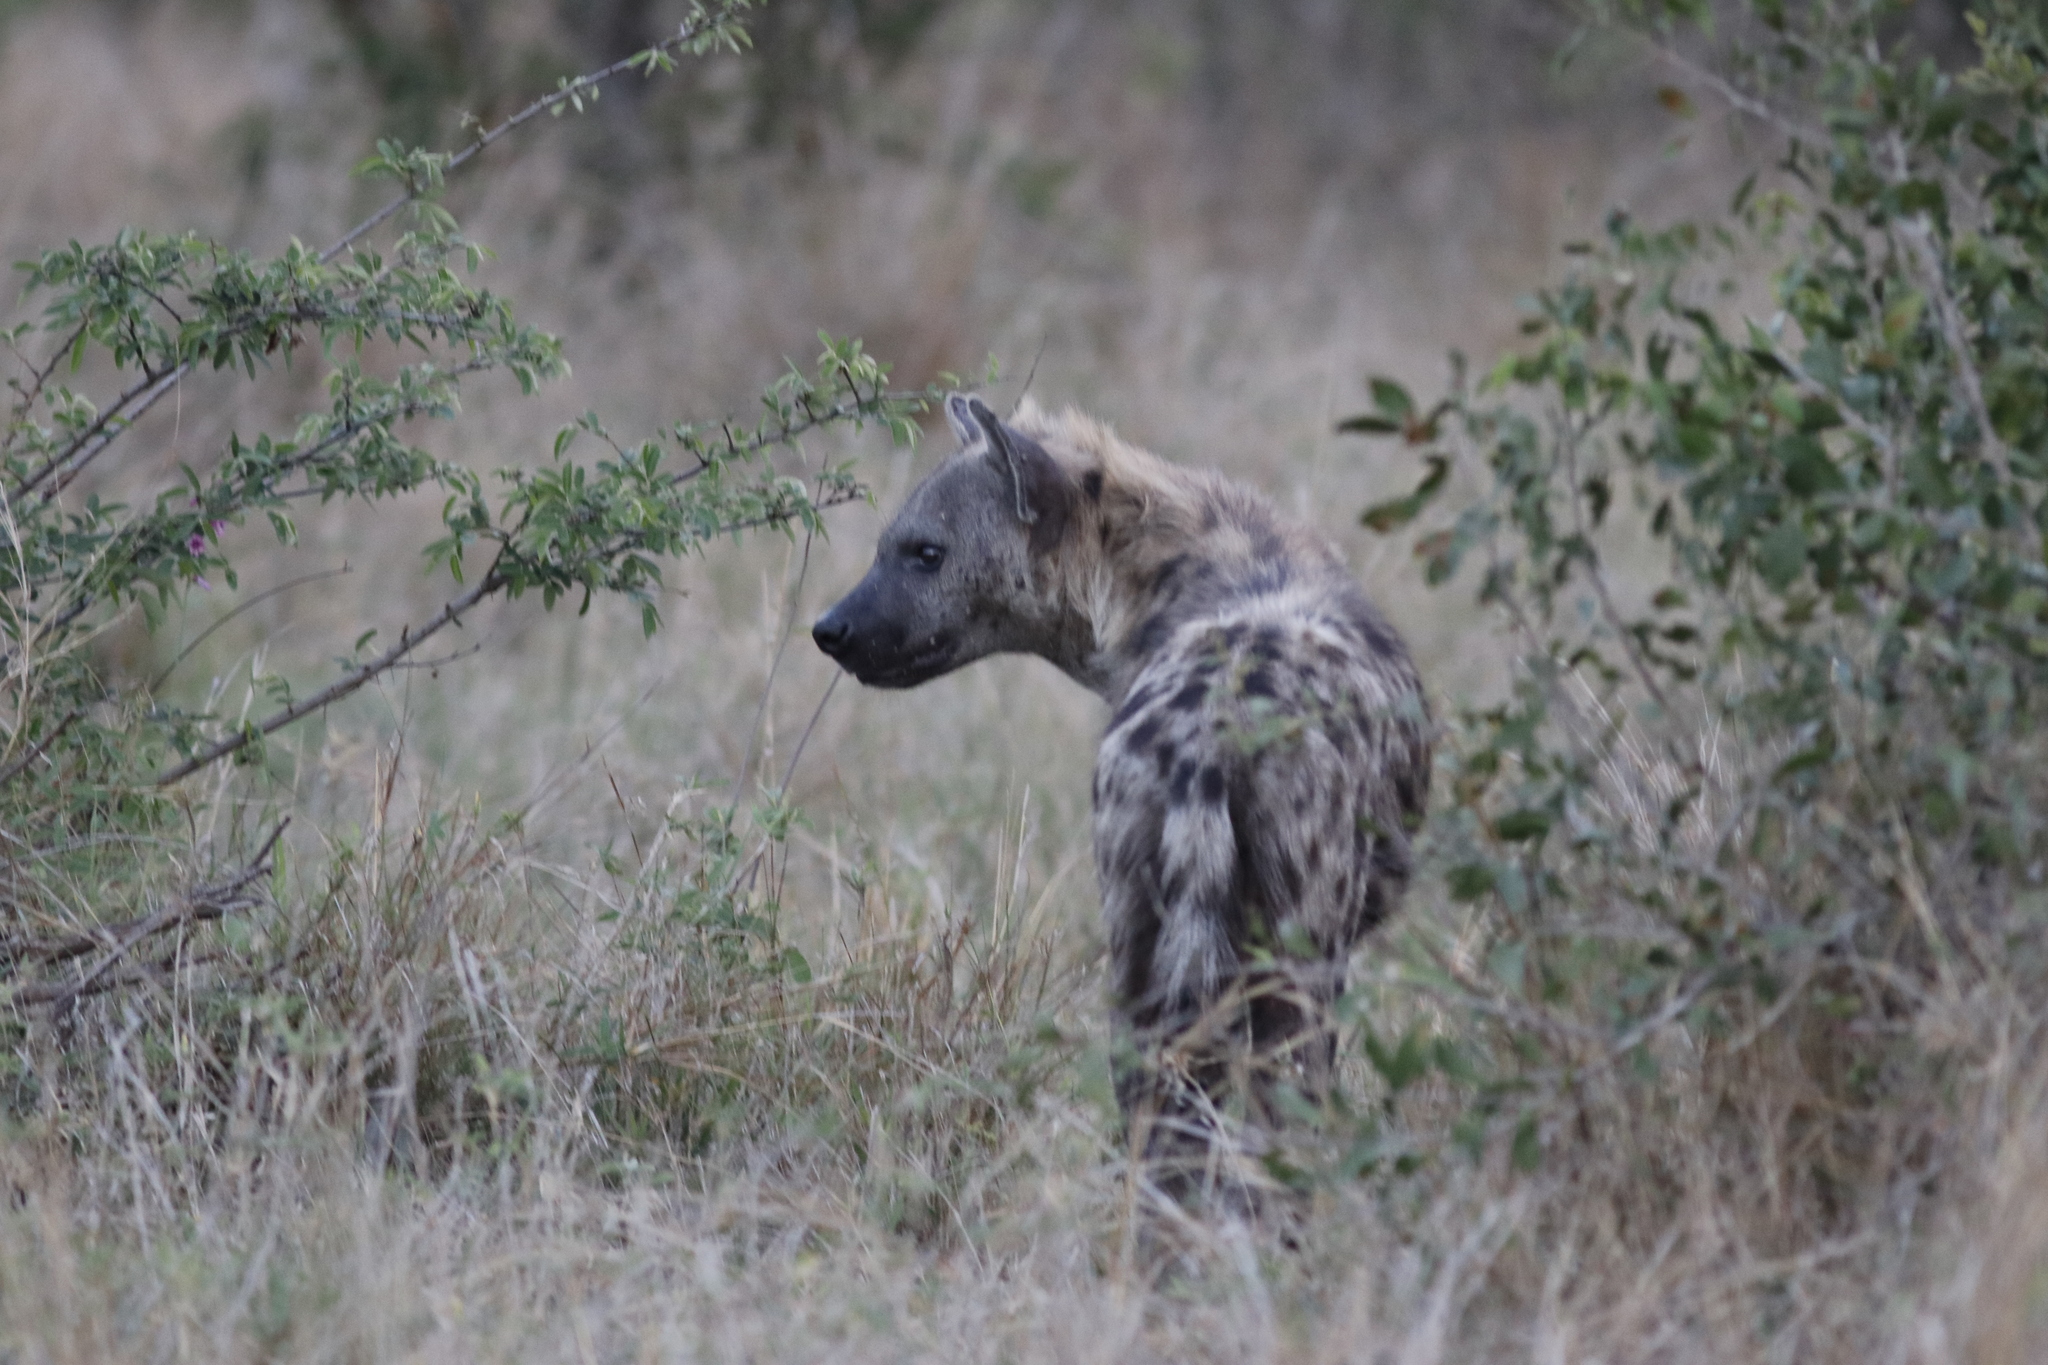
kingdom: Animalia
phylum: Chordata
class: Mammalia
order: Carnivora
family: Hyaenidae
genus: Crocuta
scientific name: Crocuta crocuta
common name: Spotted hyaena
